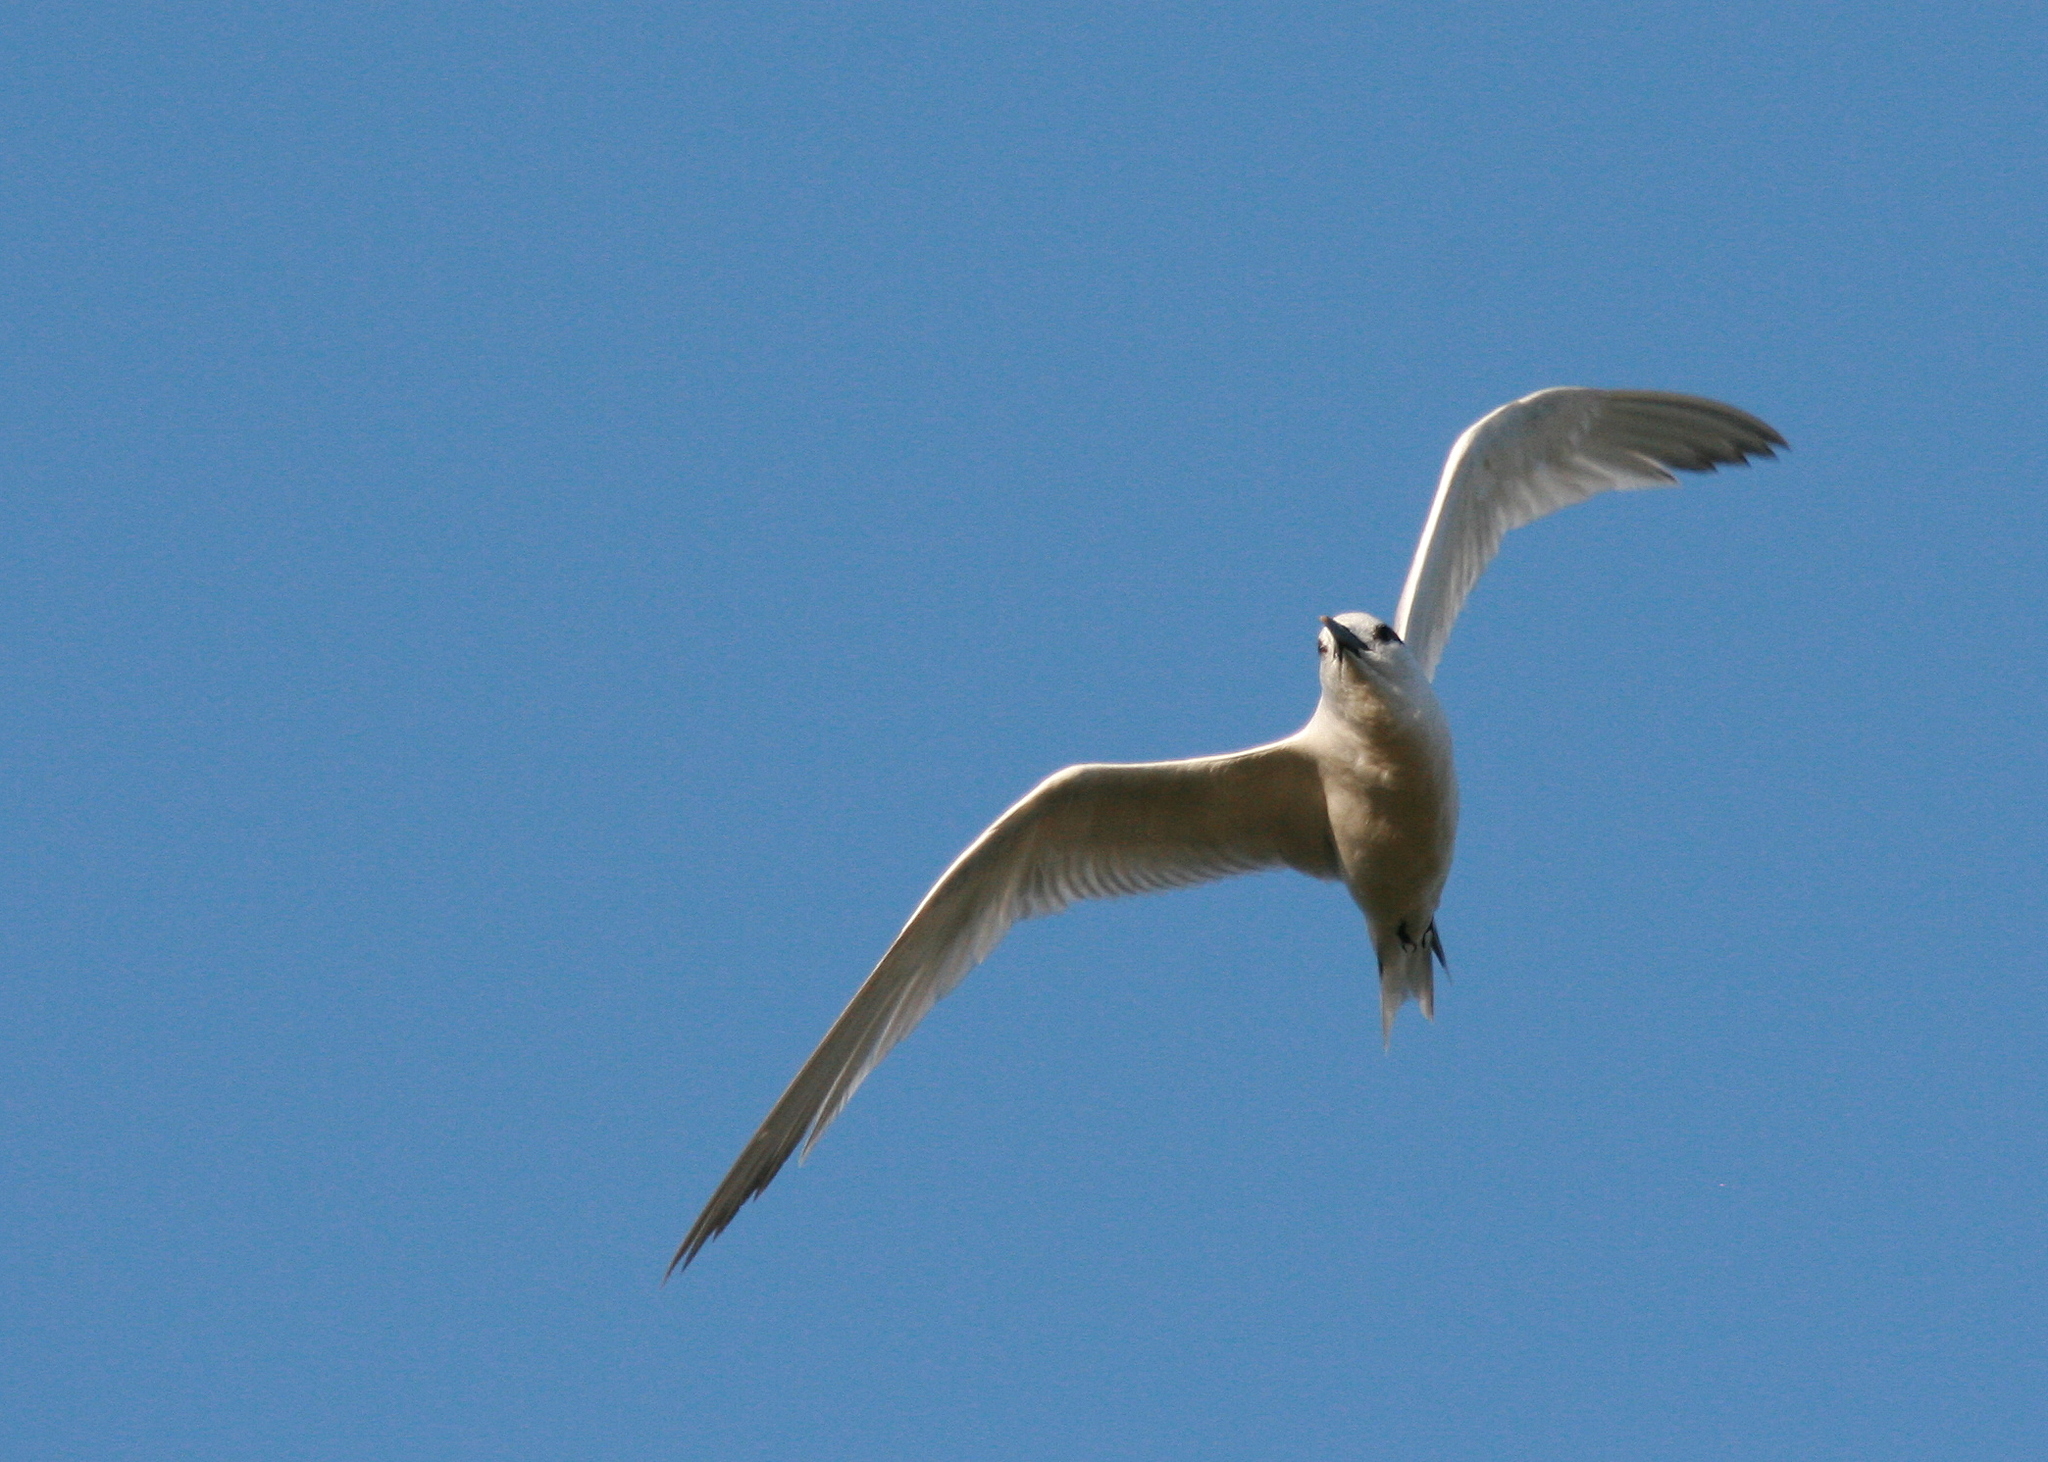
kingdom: Animalia
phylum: Chordata
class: Aves
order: Charadriiformes
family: Laridae
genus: Thalasseus
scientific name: Thalasseus sandvicensis
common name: Sandwich tern
